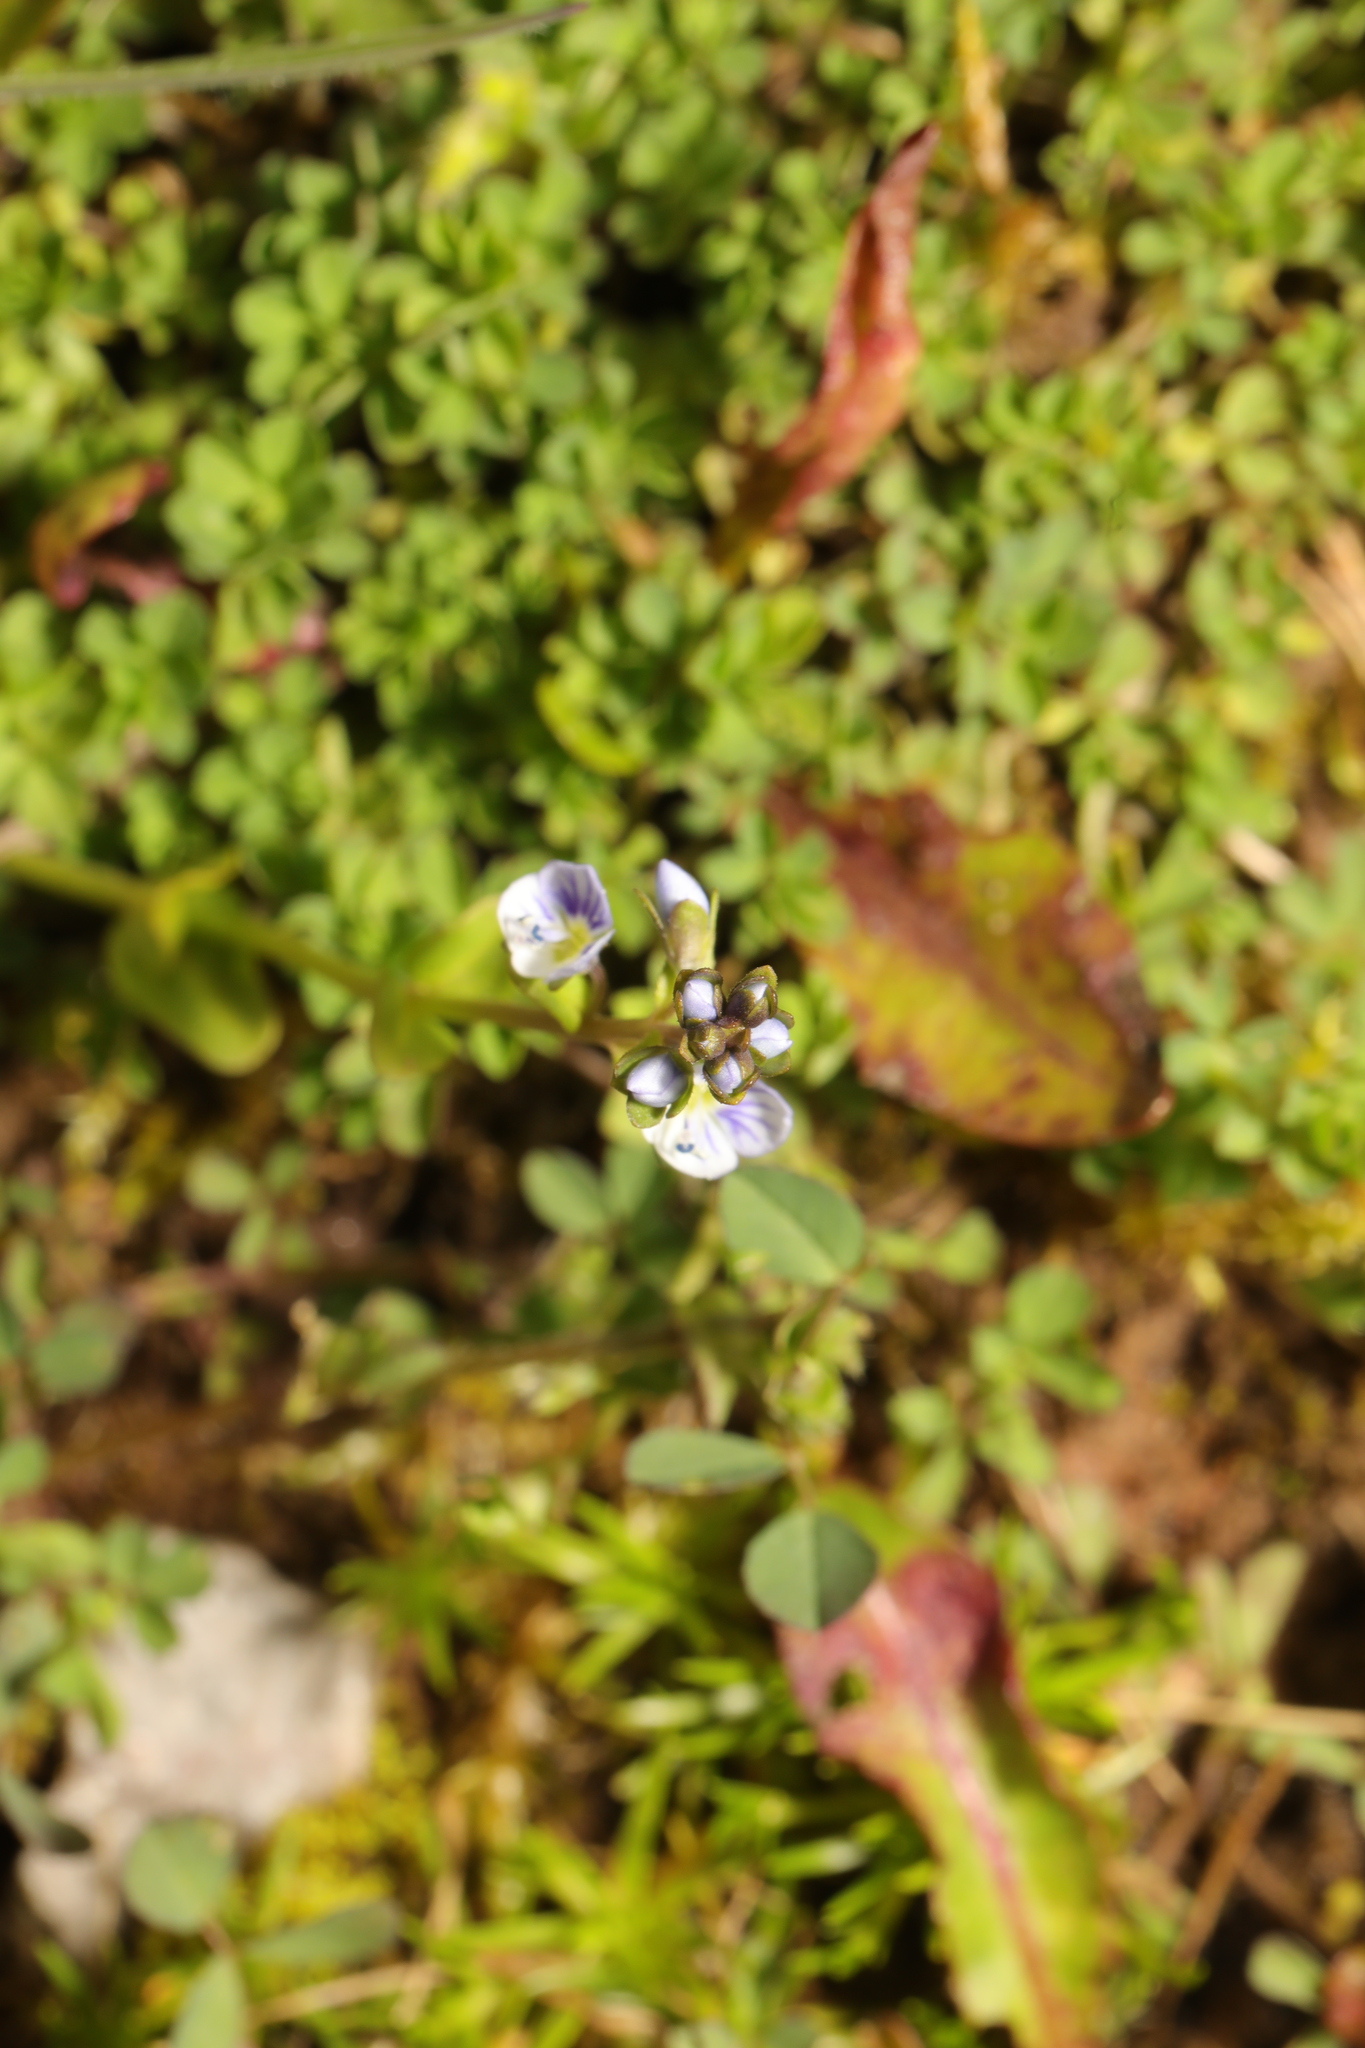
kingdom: Plantae
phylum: Tracheophyta
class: Magnoliopsida
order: Lamiales
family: Plantaginaceae
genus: Veronica
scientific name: Veronica serpyllifolia
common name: Thyme-leaved speedwell
